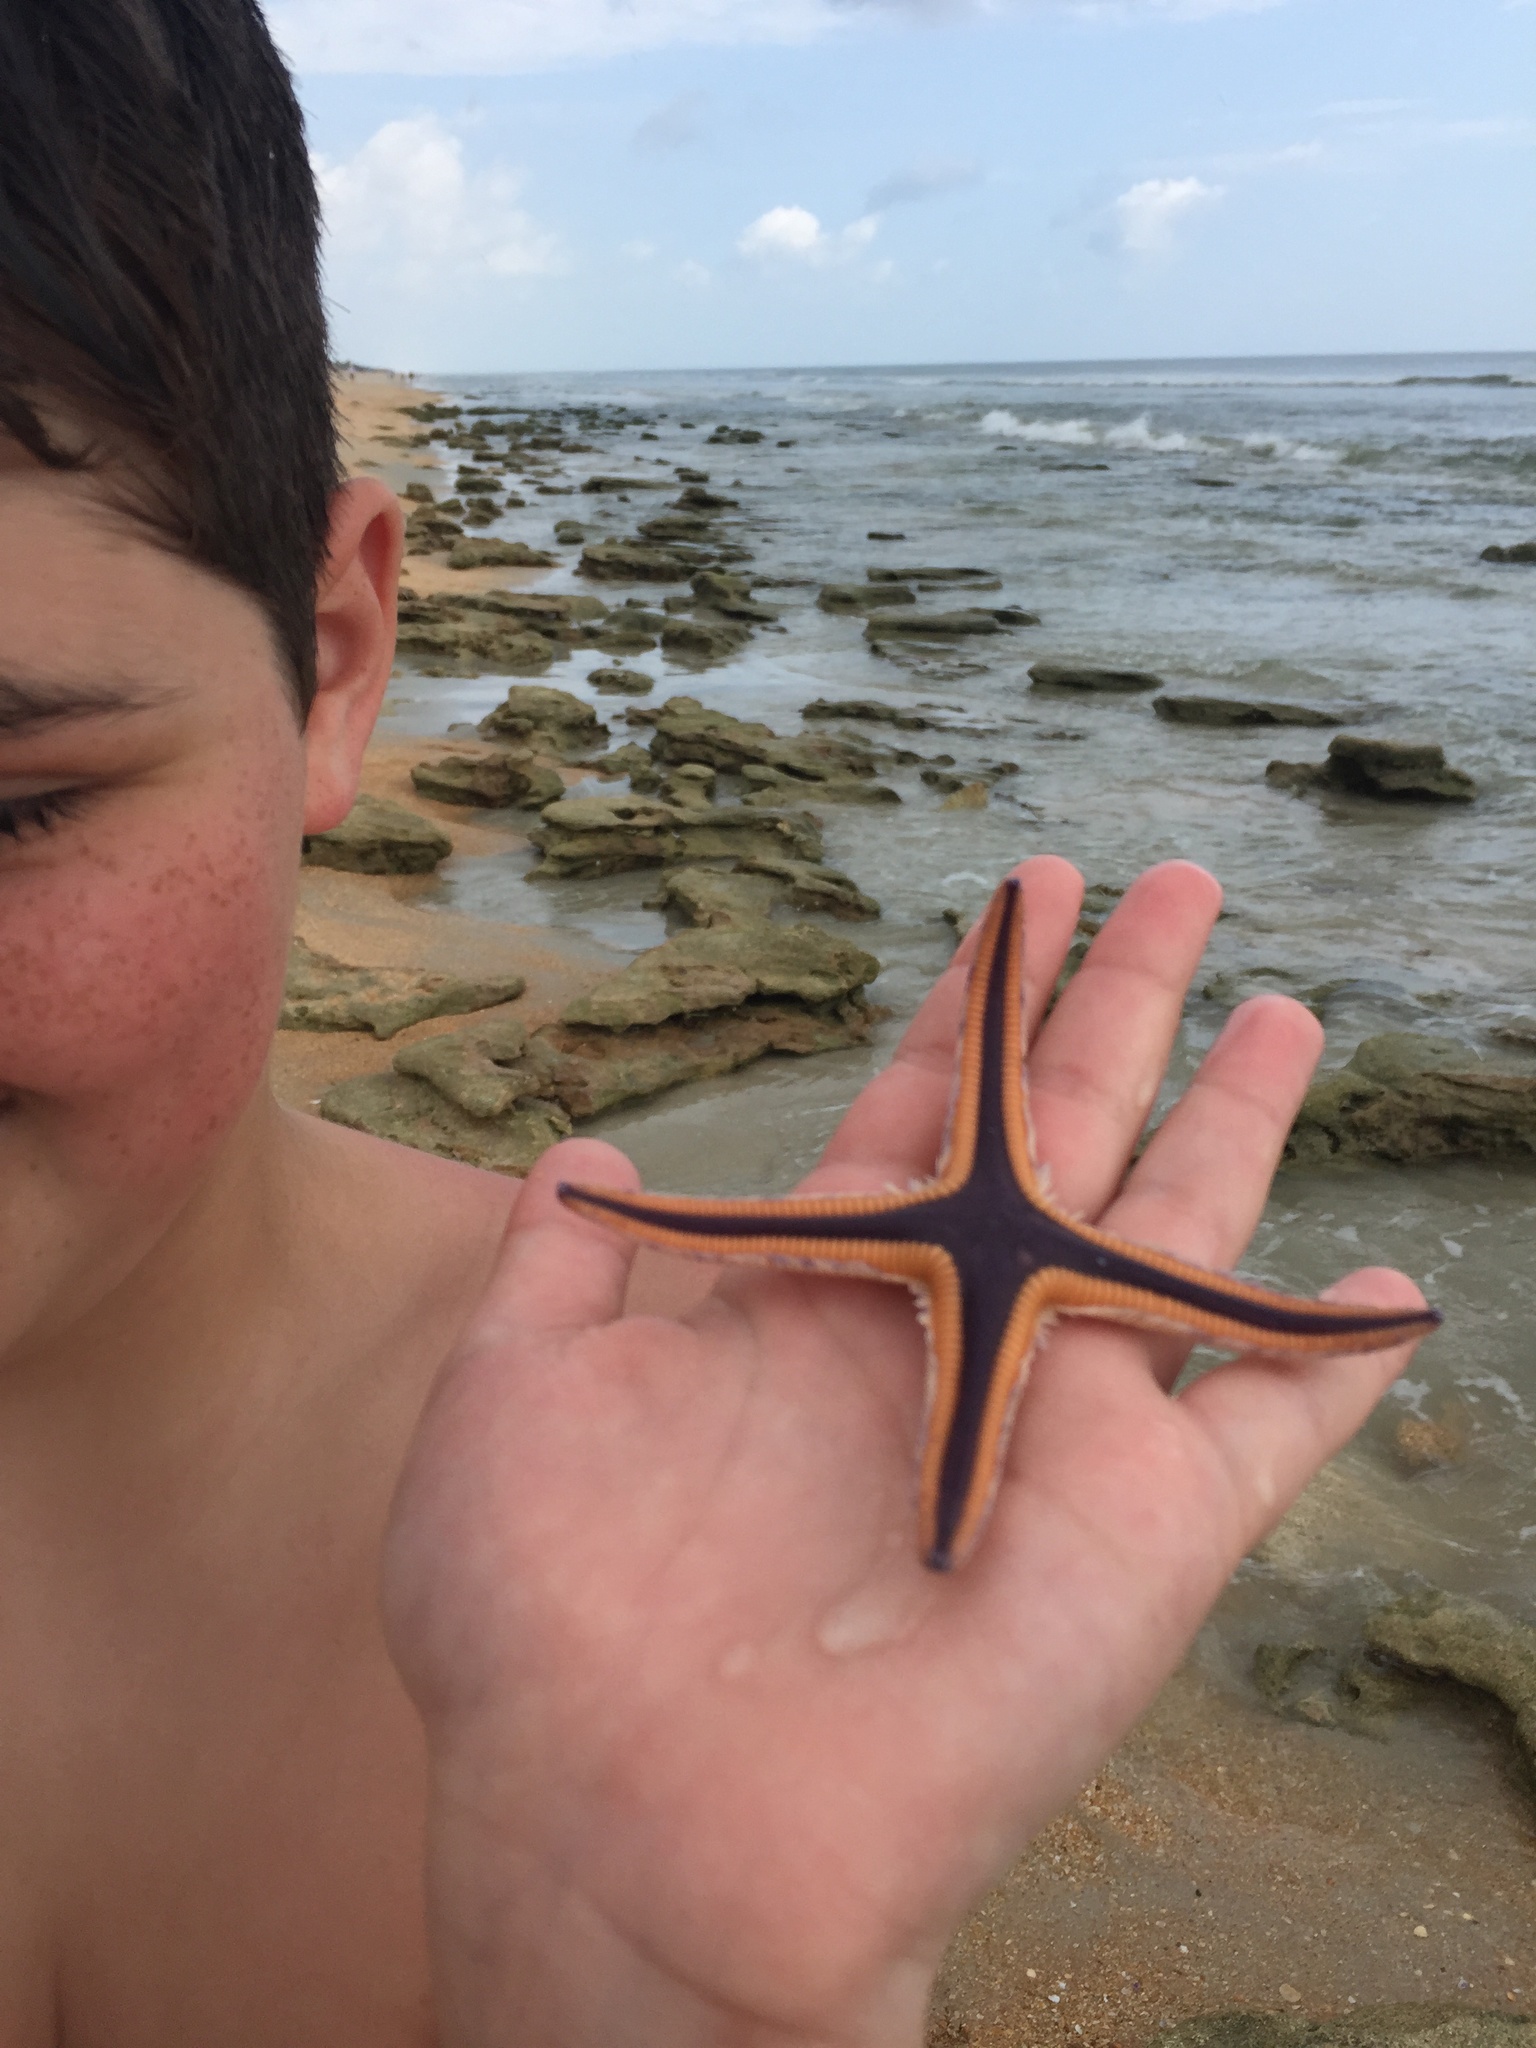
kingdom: Animalia
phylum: Echinodermata
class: Asteroidea
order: Paxillosida
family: Astropectinidae
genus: Astropecten
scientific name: Astropecten articulatus
